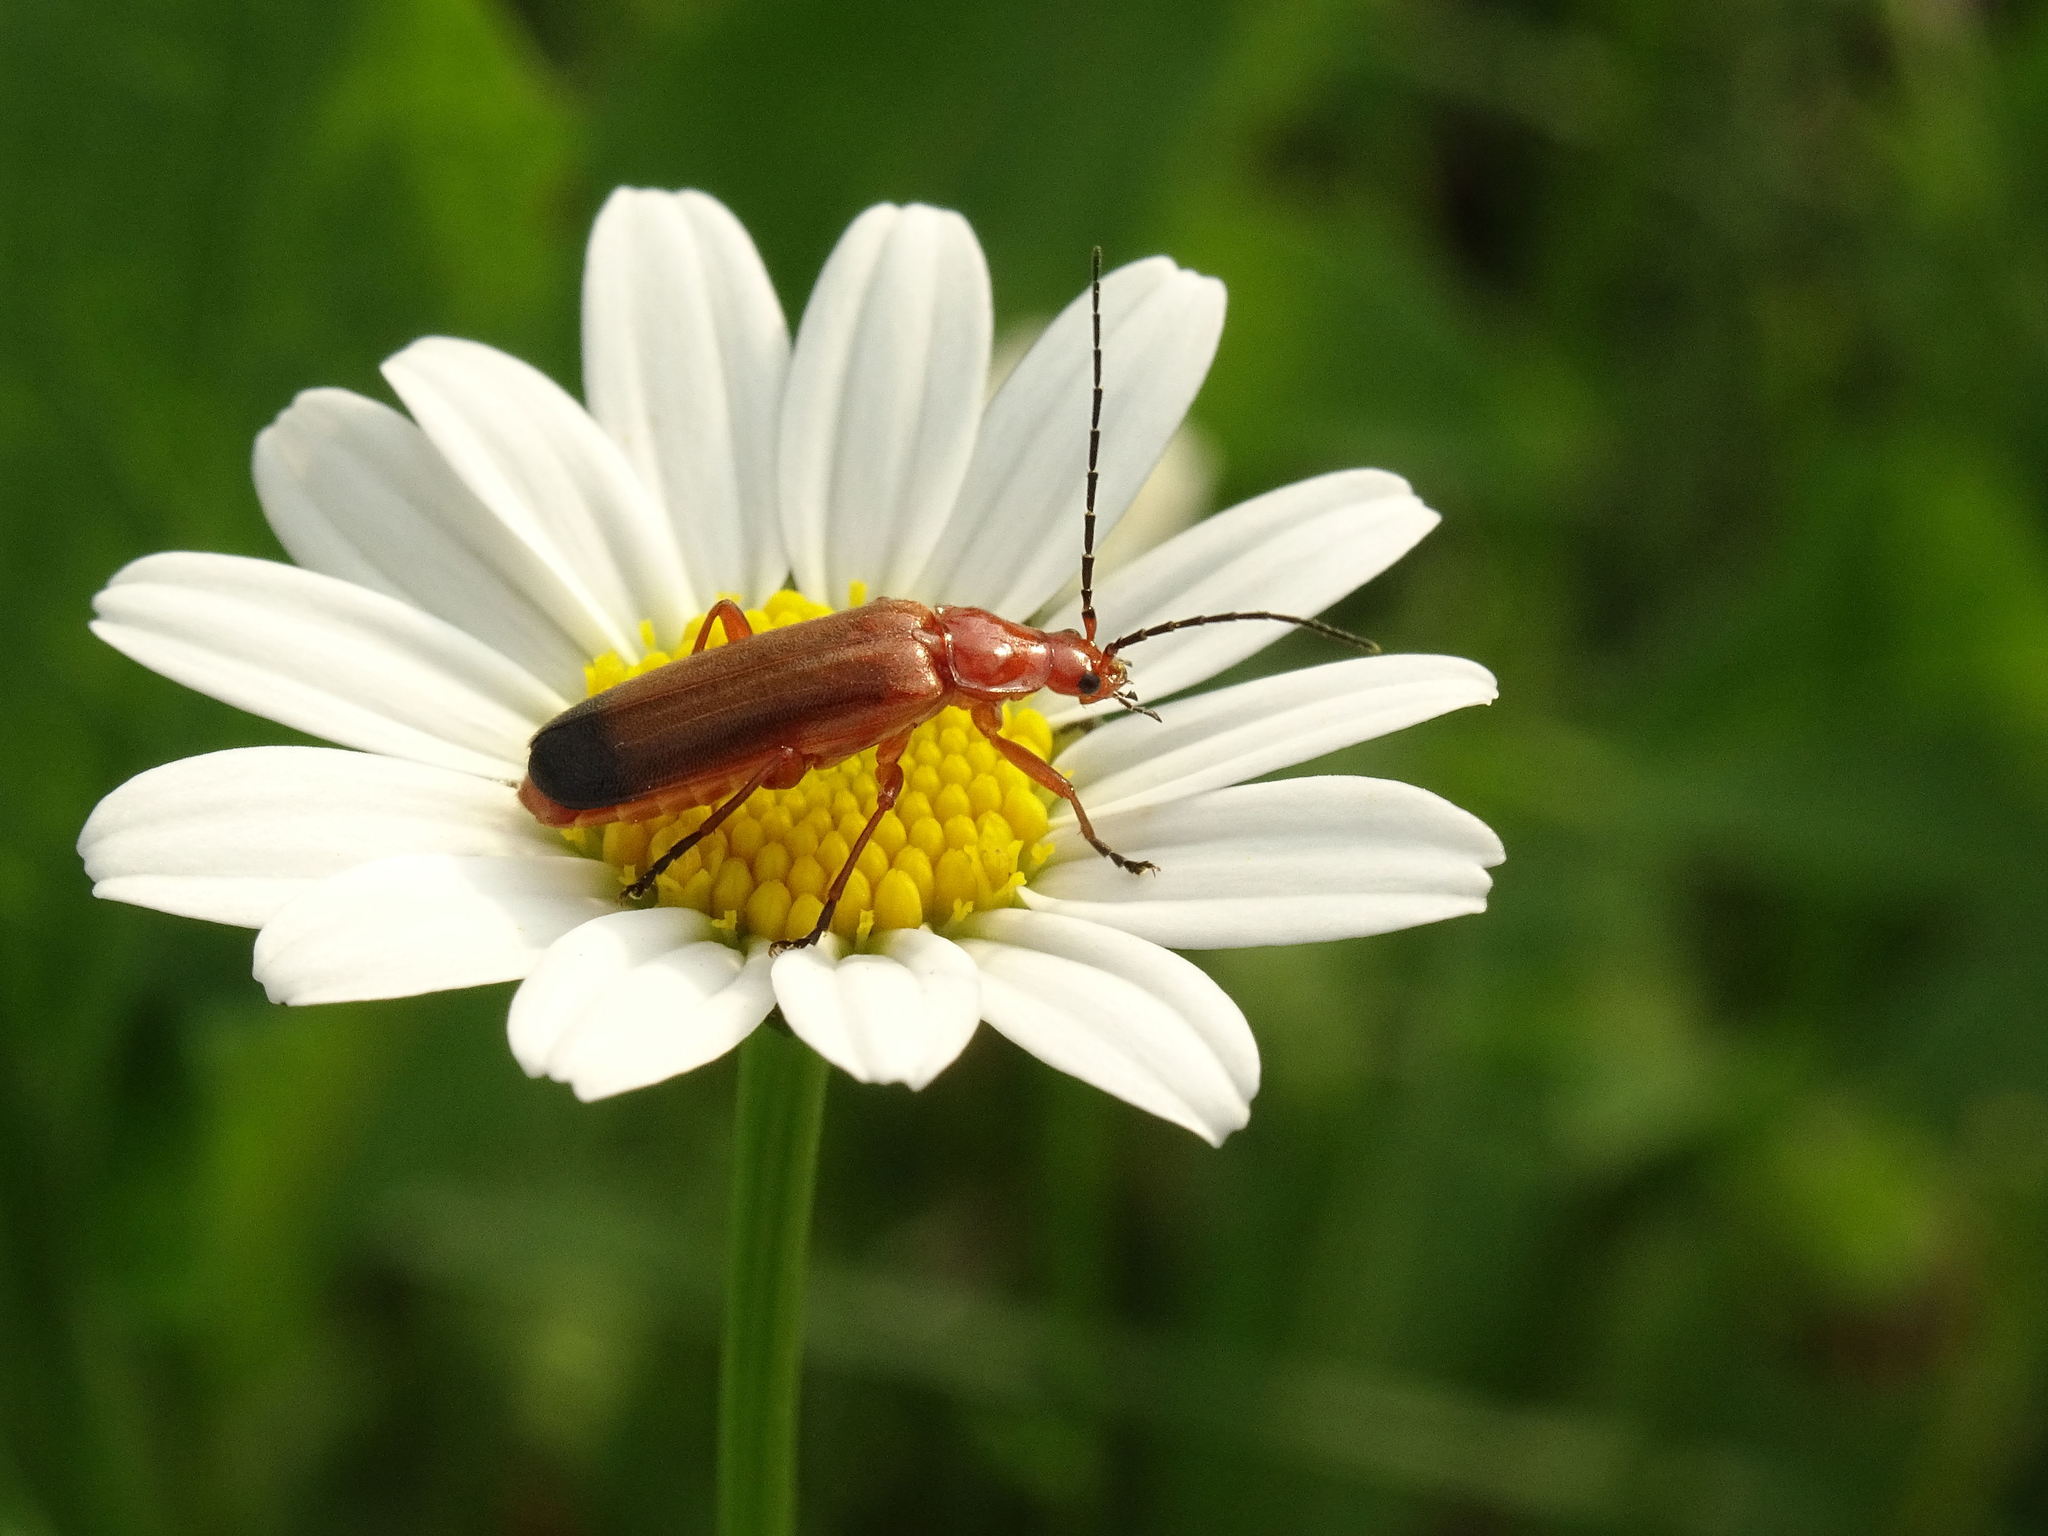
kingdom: Animalia
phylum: Arthropoda
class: Insecta
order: Coleoptera
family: Cantharidae
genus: Rhagonycha
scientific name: Rhagonycha fulva
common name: Common red soldier beetle
